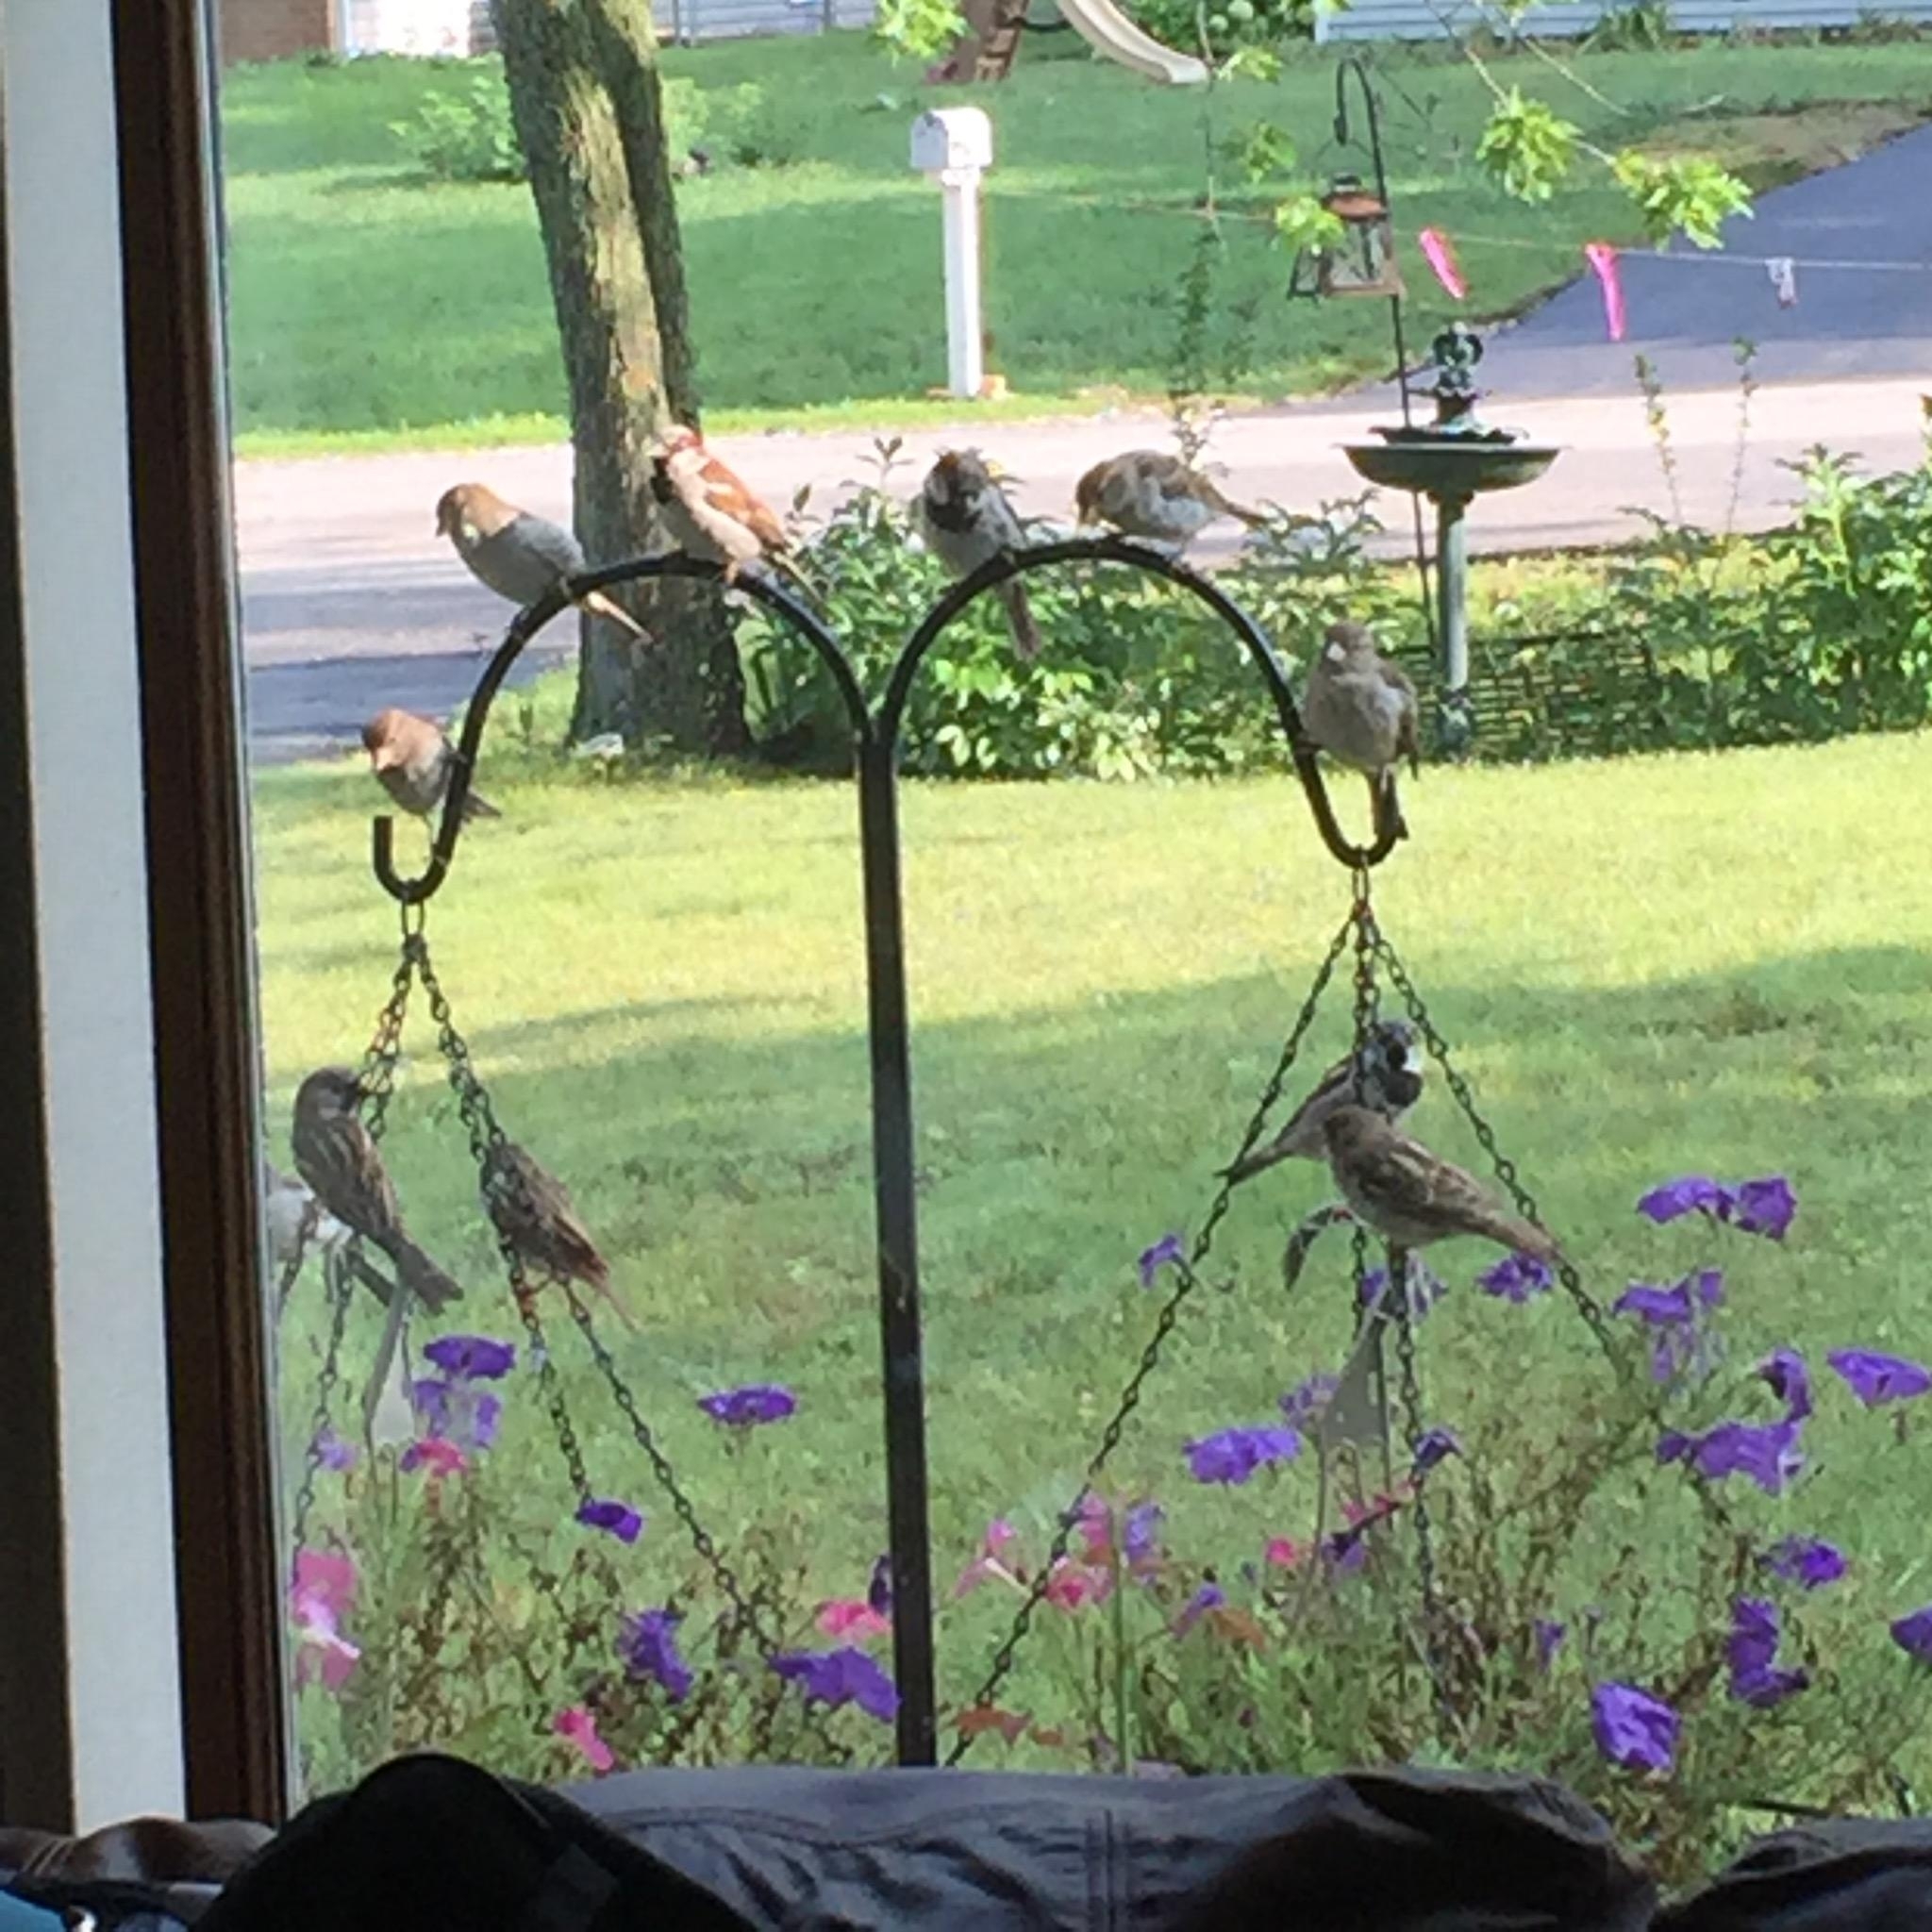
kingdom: Animalia
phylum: Chordata
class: Aves
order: Passeriformes
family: Passeridae
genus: Passer
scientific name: Passer domesticus
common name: House sparrow
